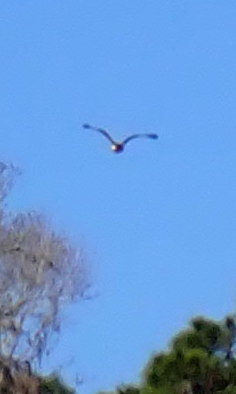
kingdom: Animalia
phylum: Chordata
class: Aves
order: Accipitriformes
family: Accipitridae
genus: Buteo
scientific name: Buteo jamaicensis
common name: Red-tailed hawk
